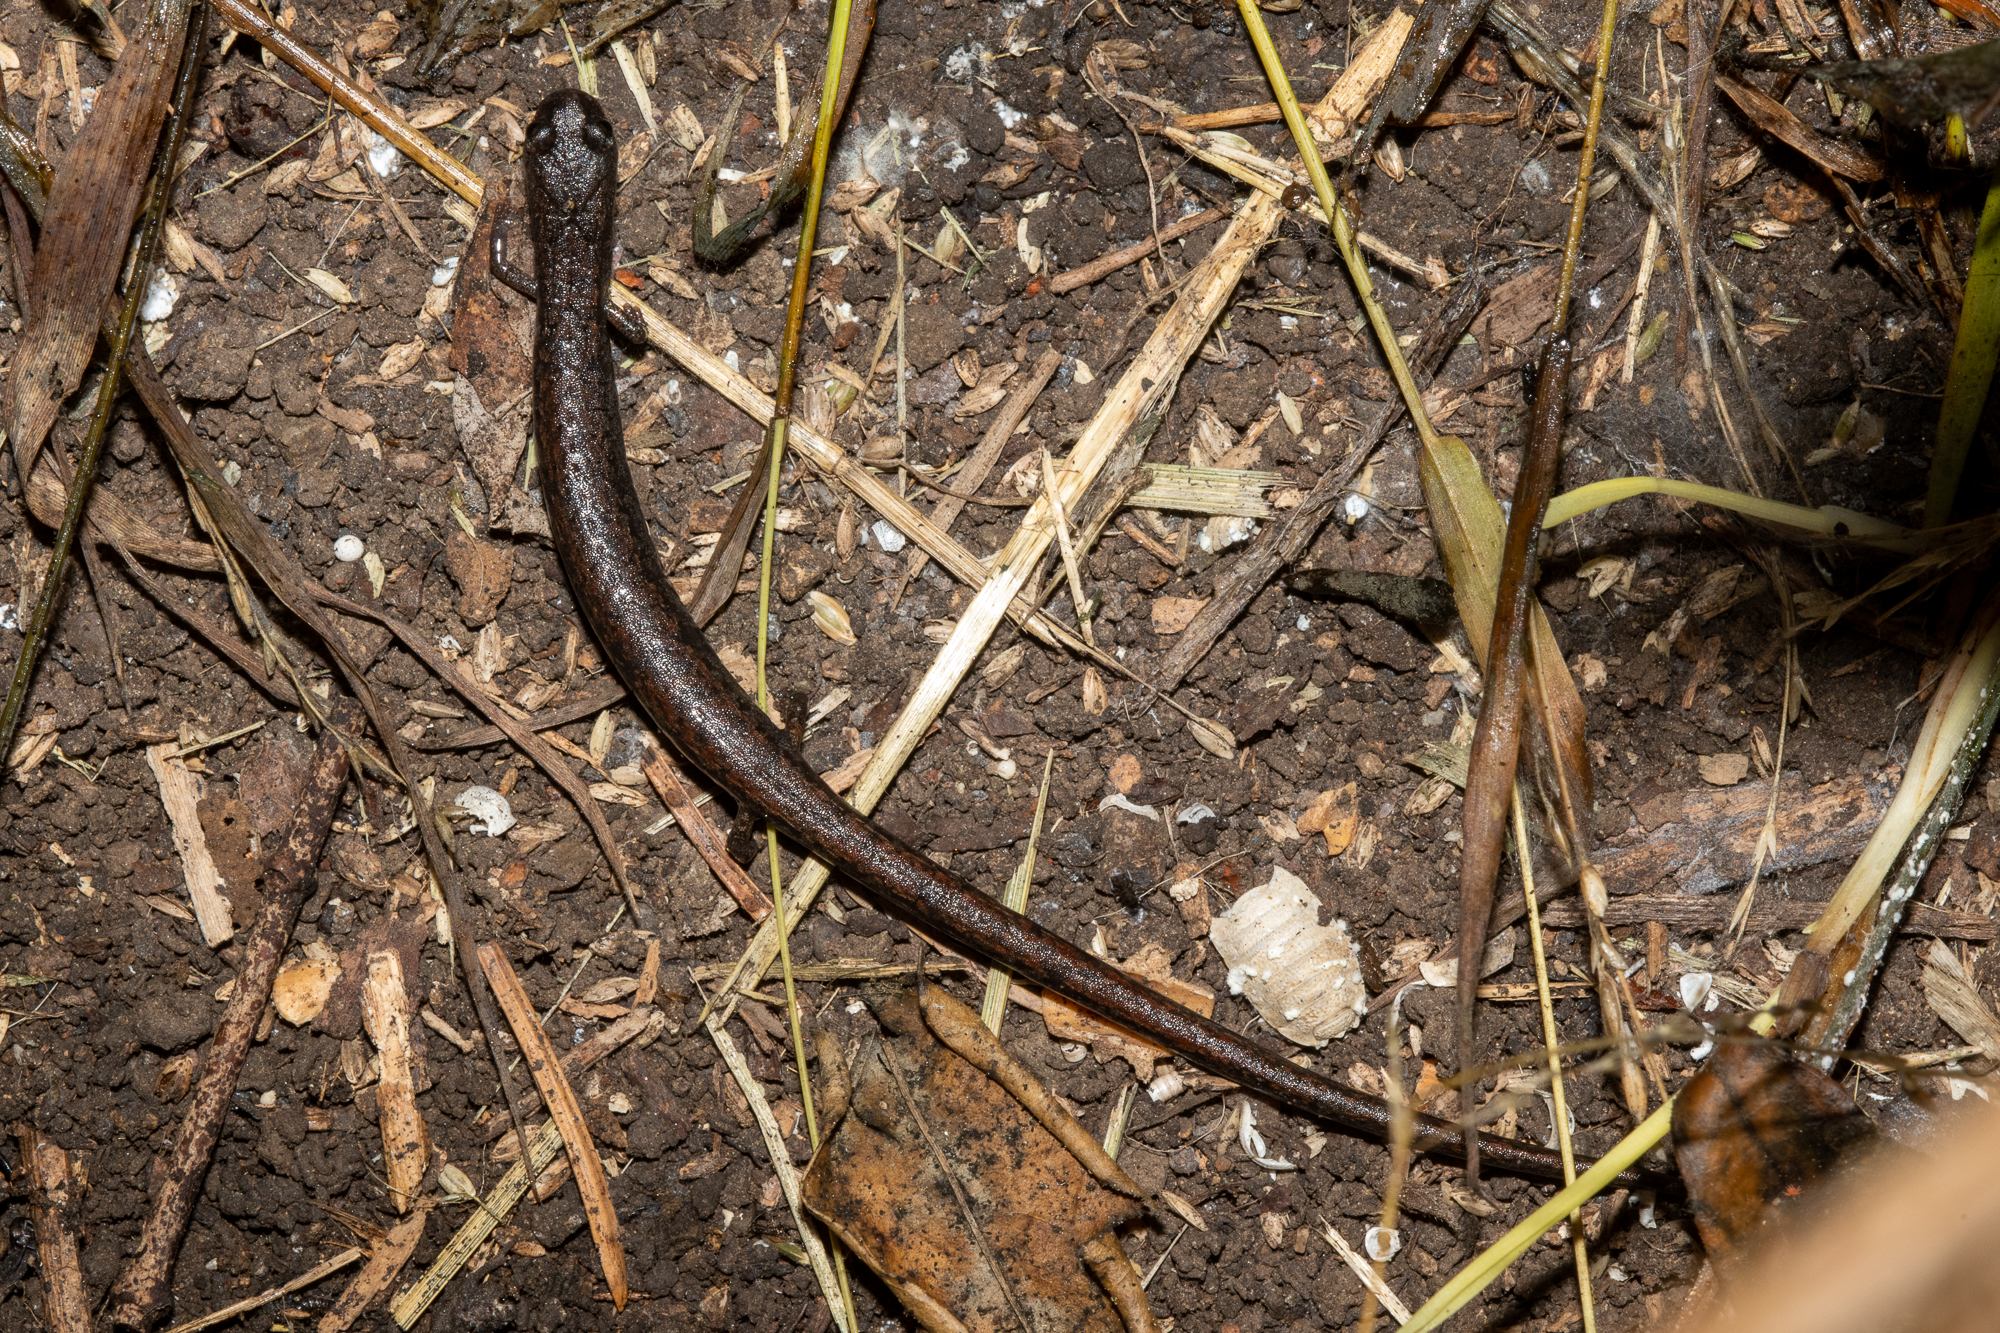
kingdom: Animalia
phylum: Chordata
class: Amphibia
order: Caudata
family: Plethodontidae
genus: Batrachoseps
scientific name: Batrachoseps attenuatus
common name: California slender salamander
